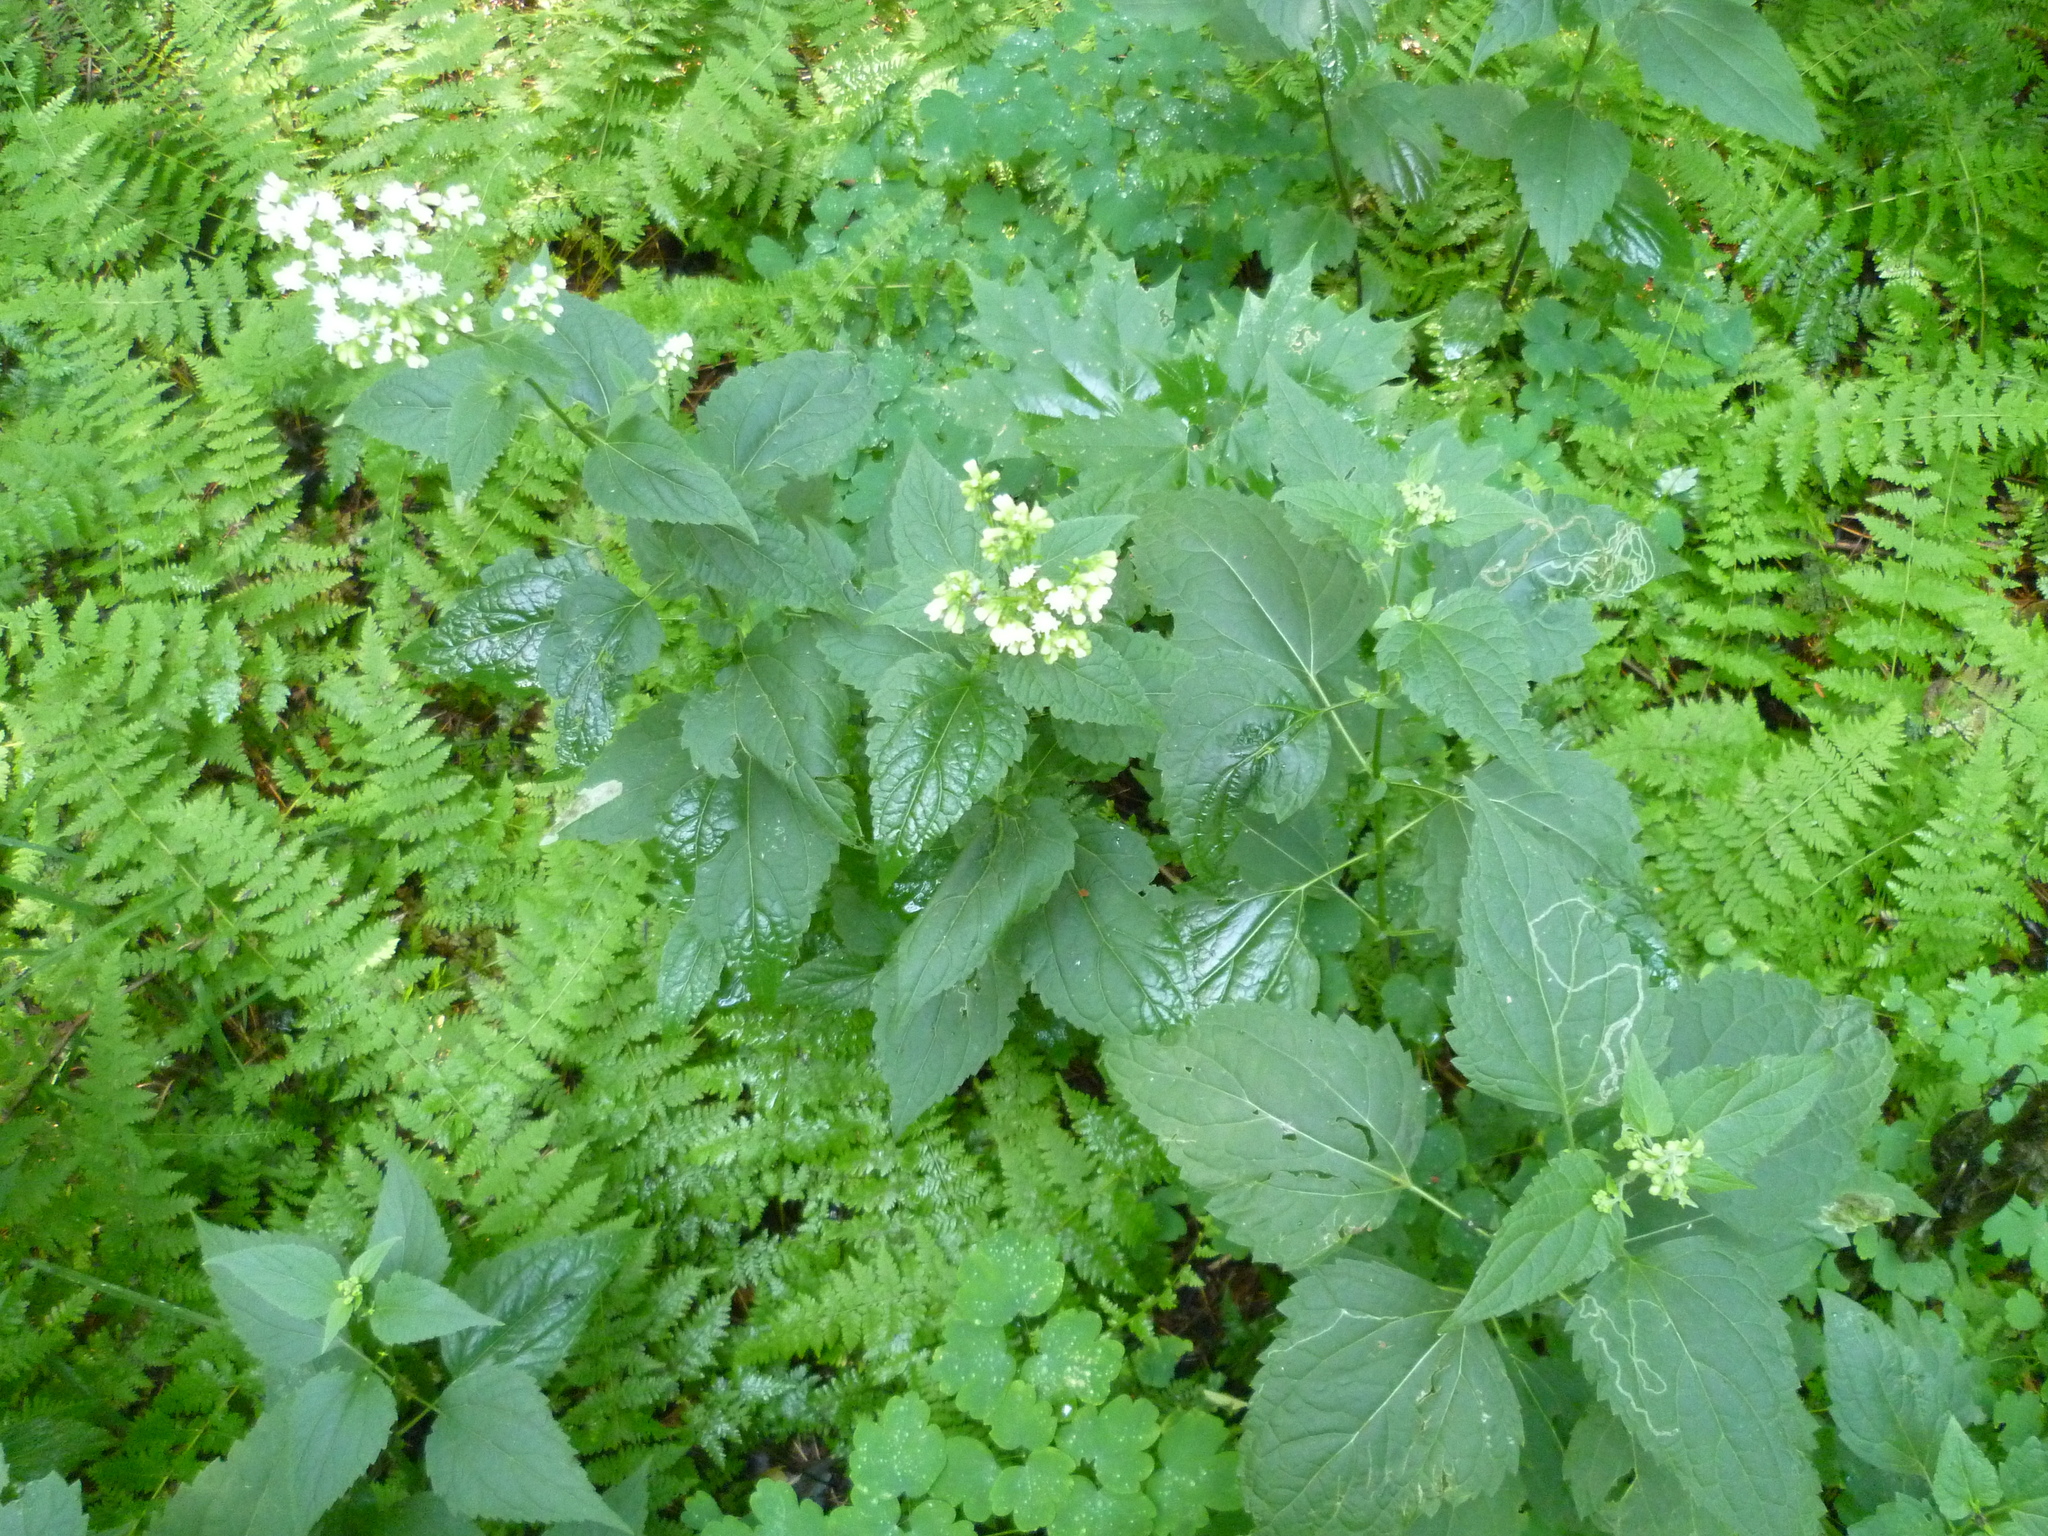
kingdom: Plantae
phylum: Tracheophyta
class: Magnoliopsida
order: Asterales
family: Asteraceae
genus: Ageratina
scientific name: Ageratina altissima
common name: White snakeroot
